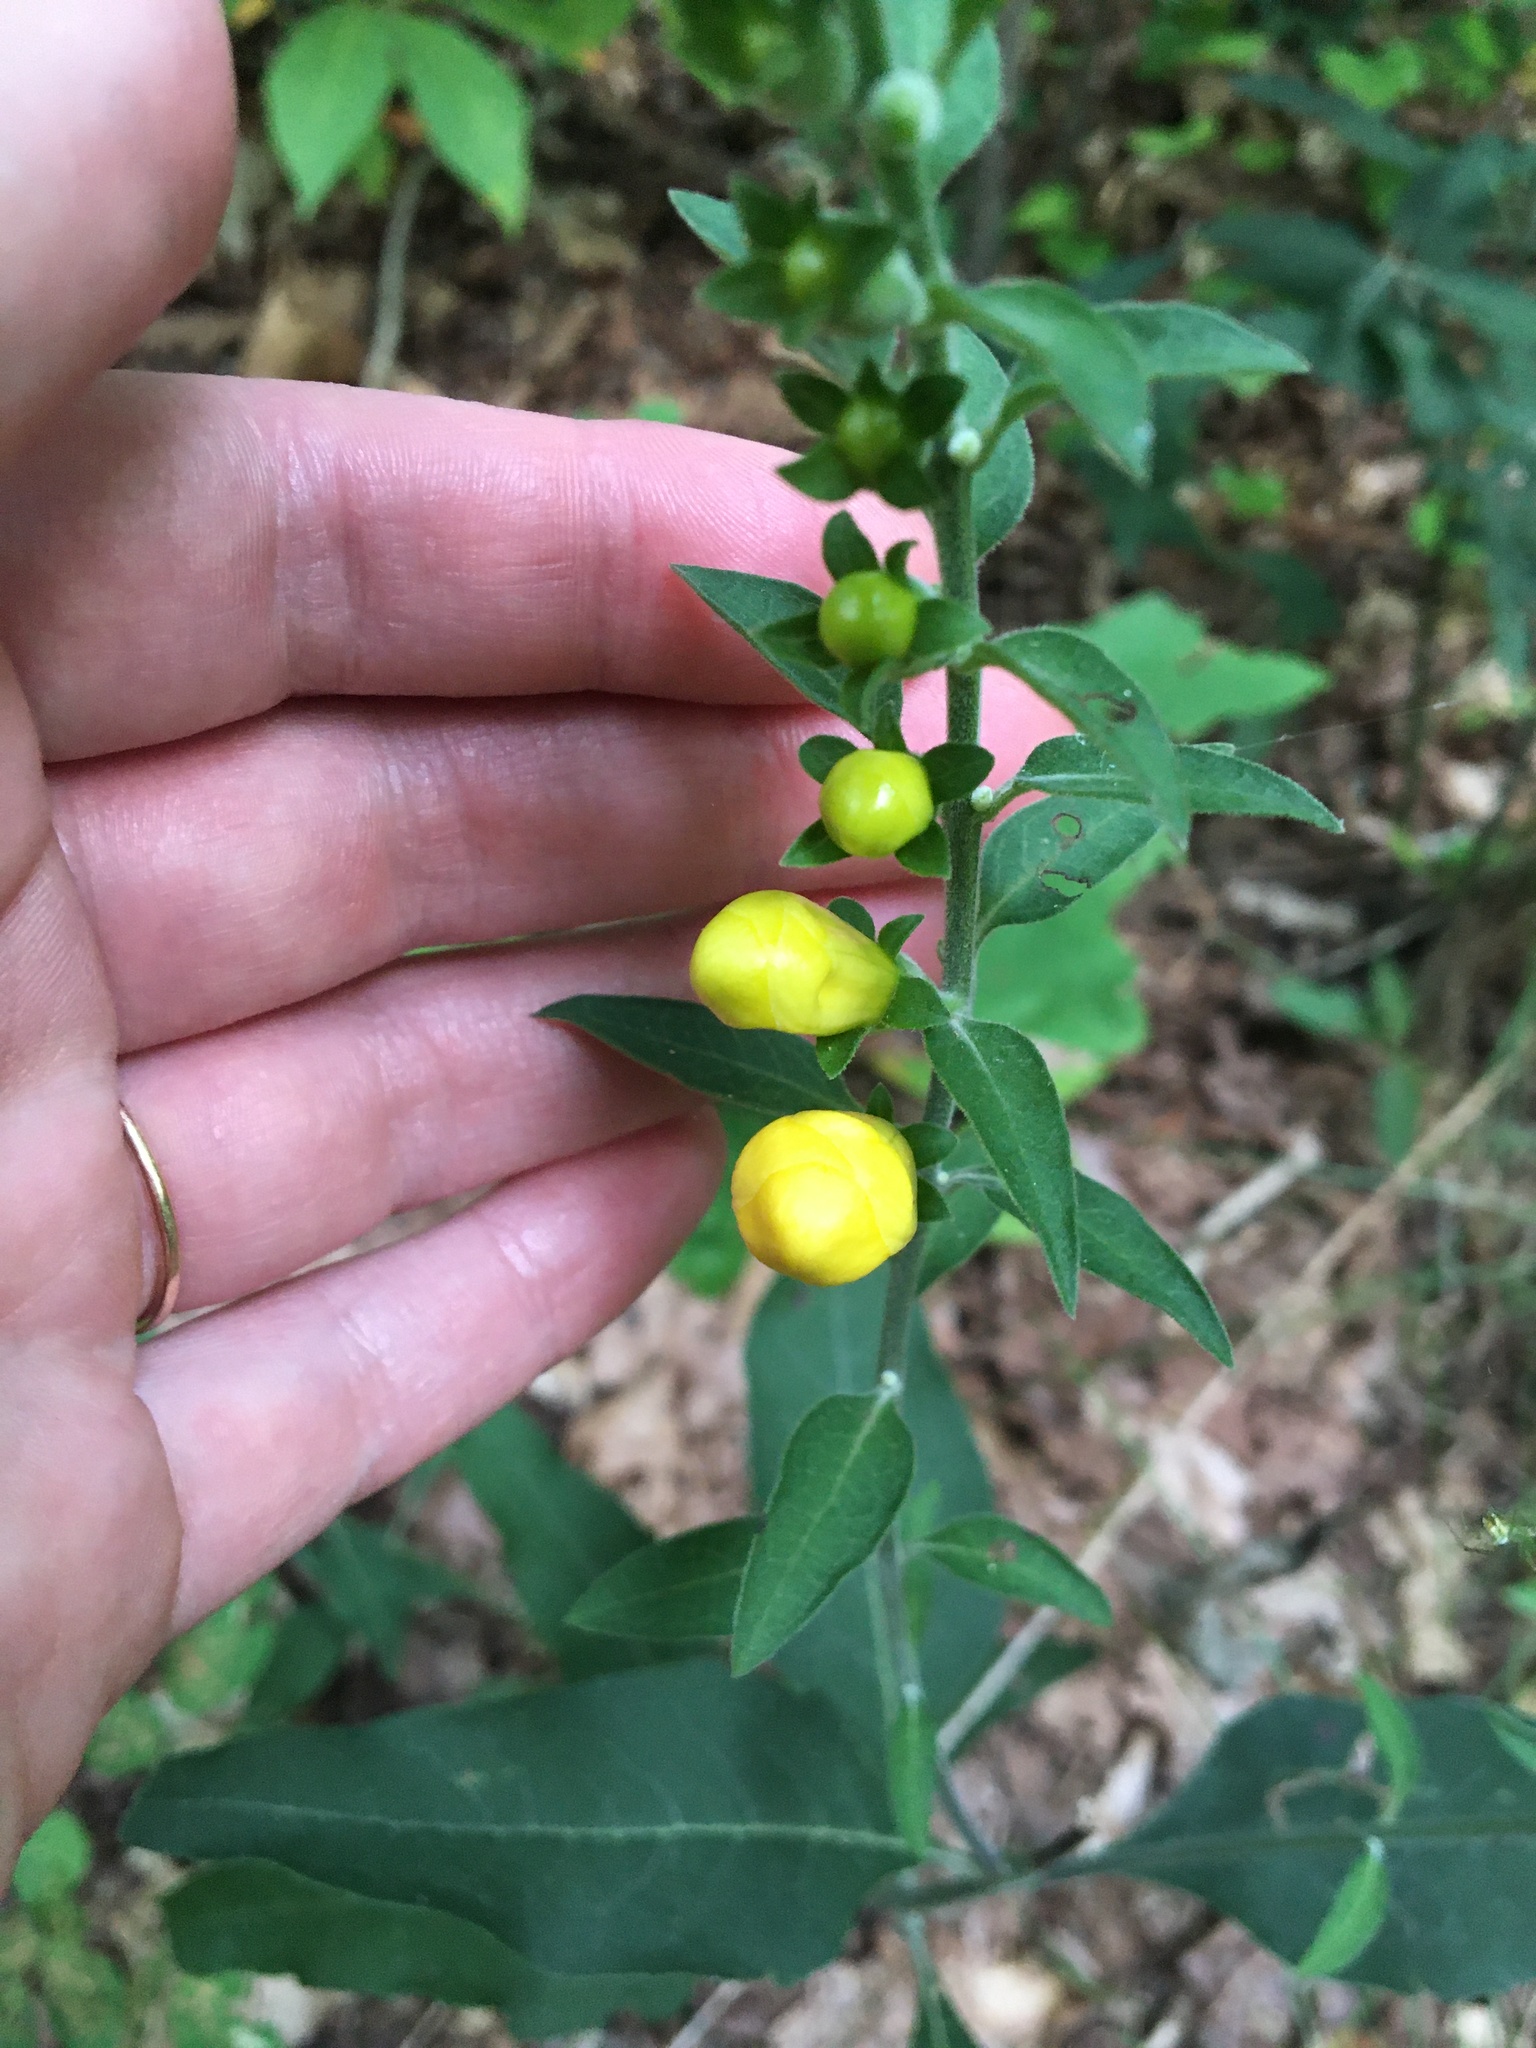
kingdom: Plantae
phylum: Tracheophyta
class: Magnoliopsida
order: Lamiales
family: Orobanchaceae
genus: Aureolaria
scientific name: Aureolaria virginica
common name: Downy false foxglove
